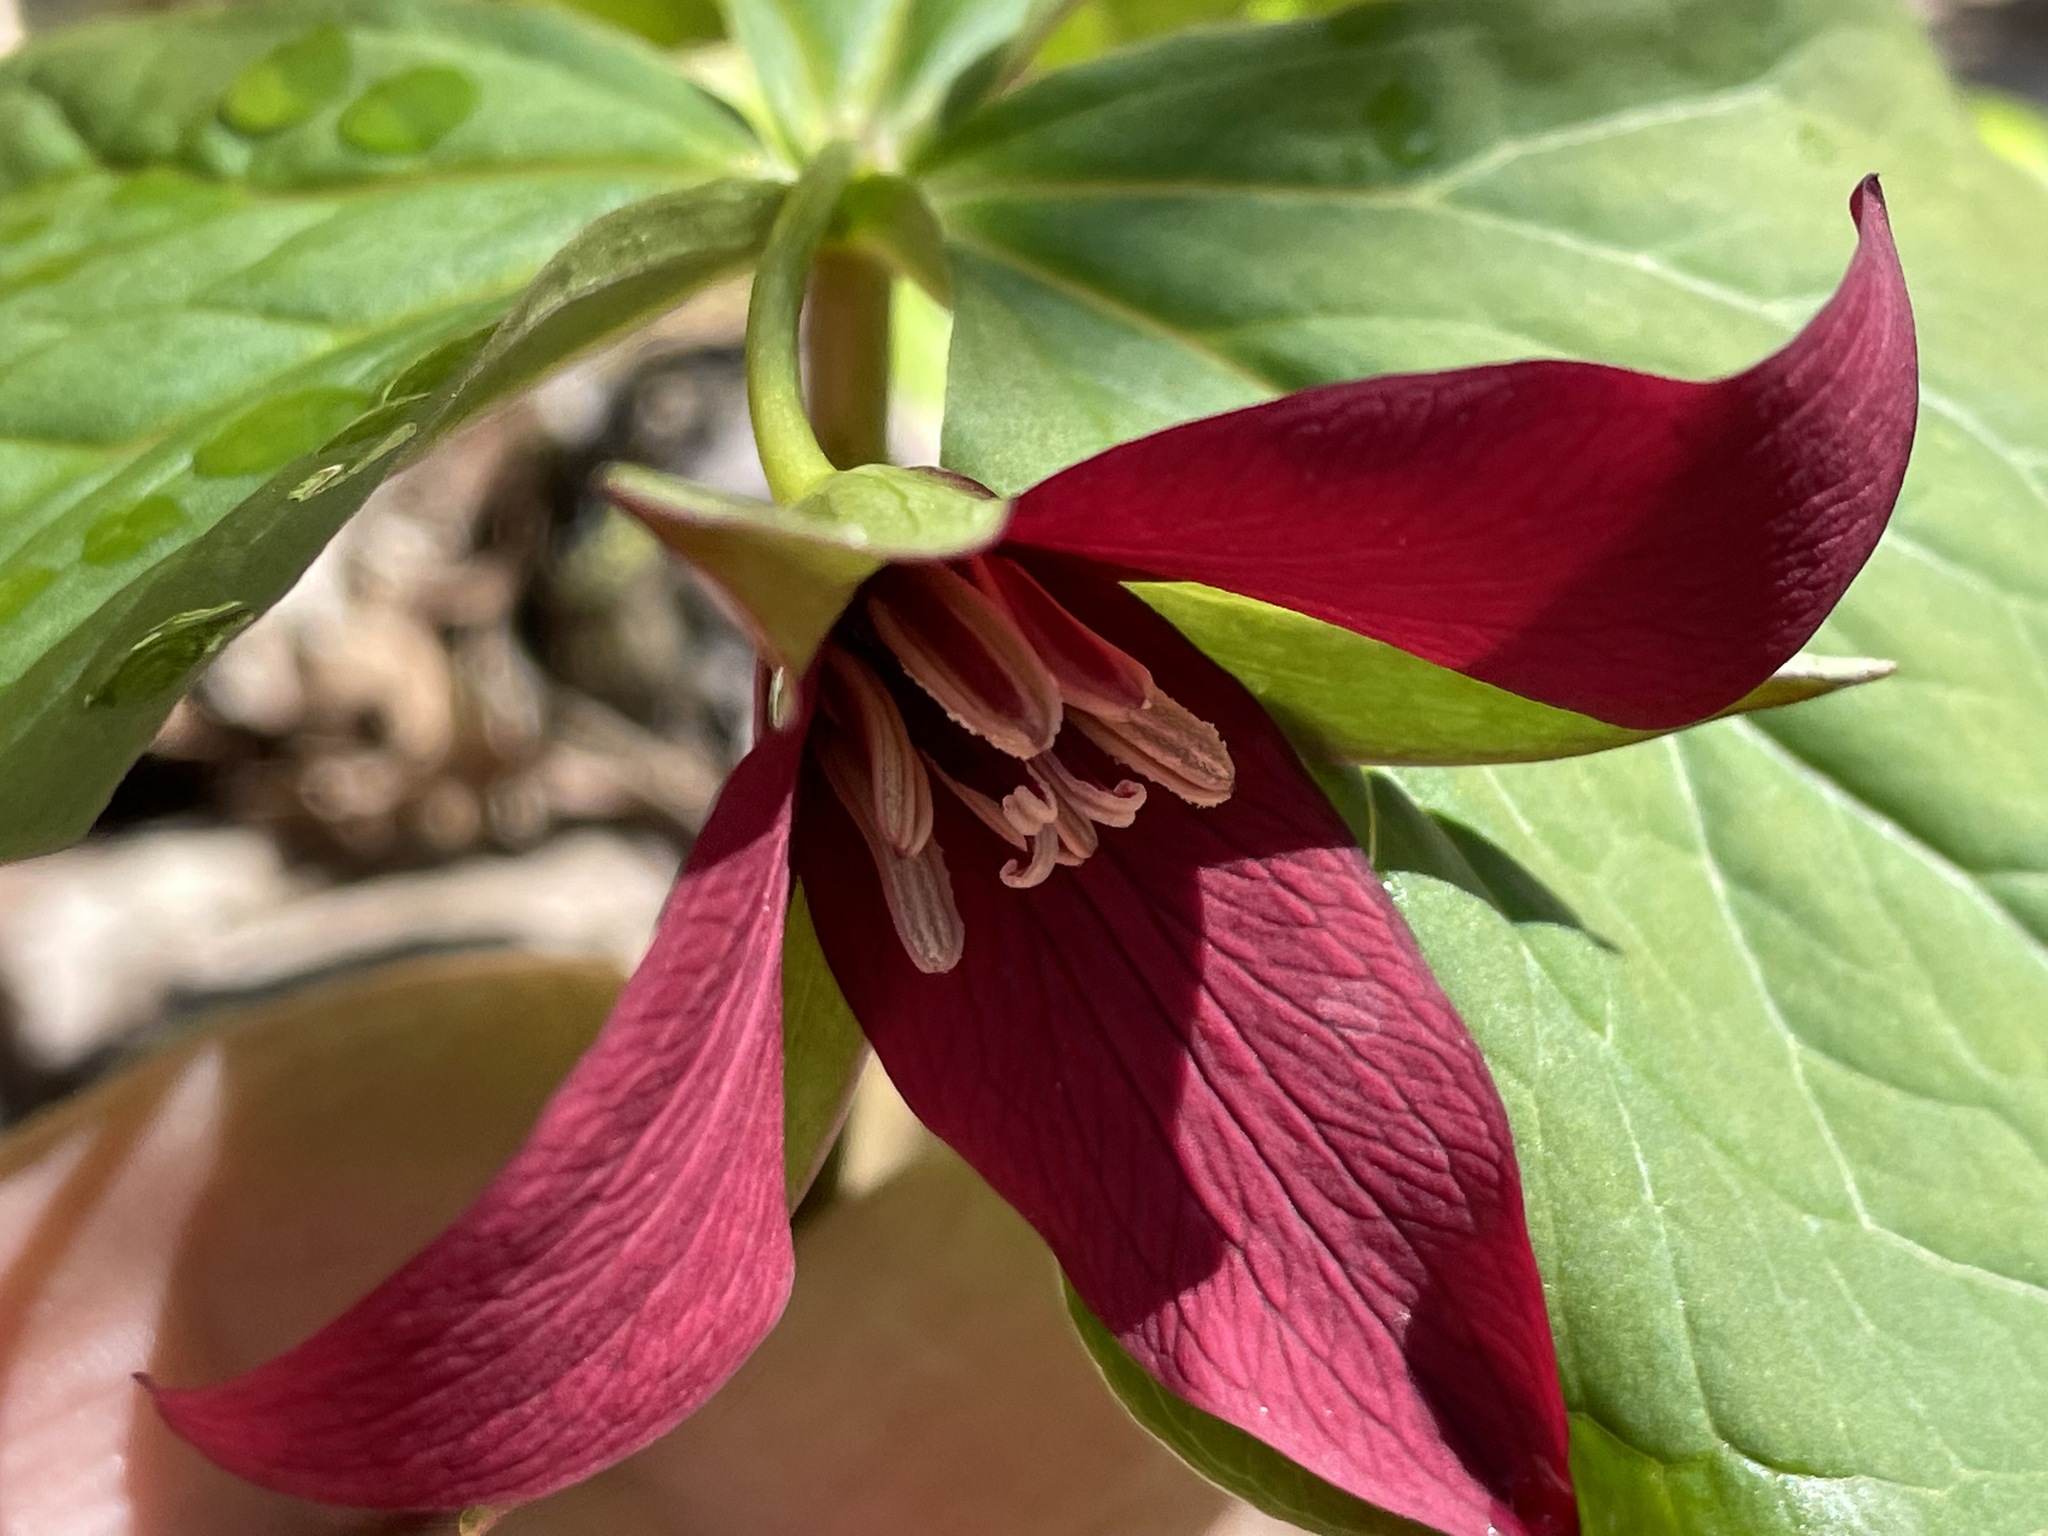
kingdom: Plantae
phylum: Tracheophyta
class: Liliopsida
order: Liliales
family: Melanthiaceae
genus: Trillium
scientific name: Trillium erectum
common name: Purple trillium
